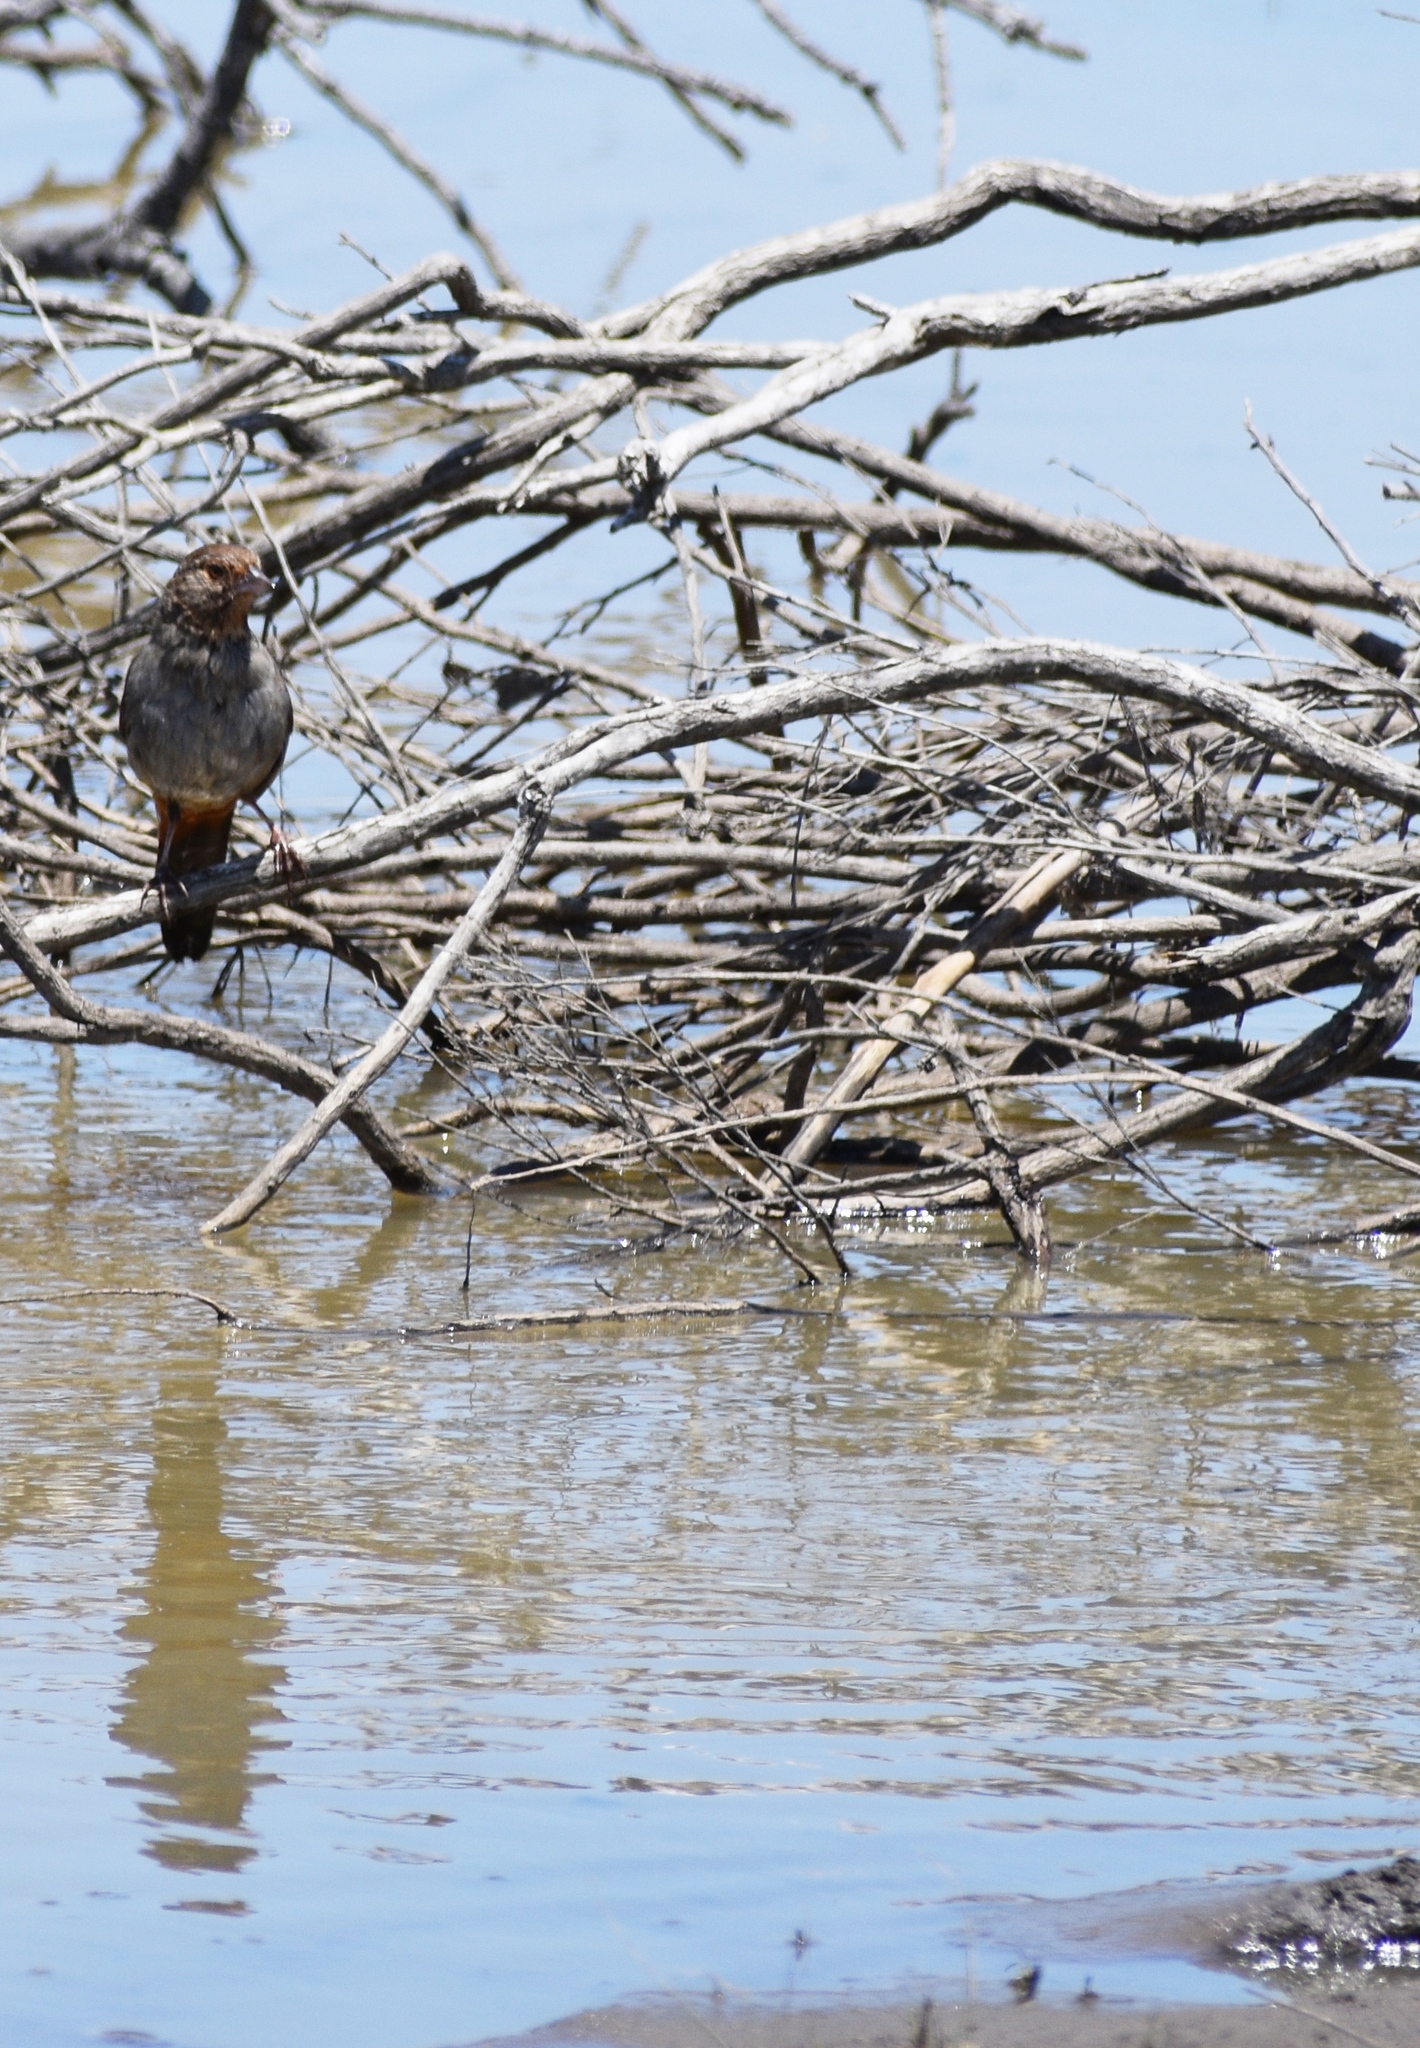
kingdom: Animalia
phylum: Chordata
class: Aves
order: Passeriformes
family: Passerellidae
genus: Melozone
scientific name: Melozone crissalis
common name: California towhee
